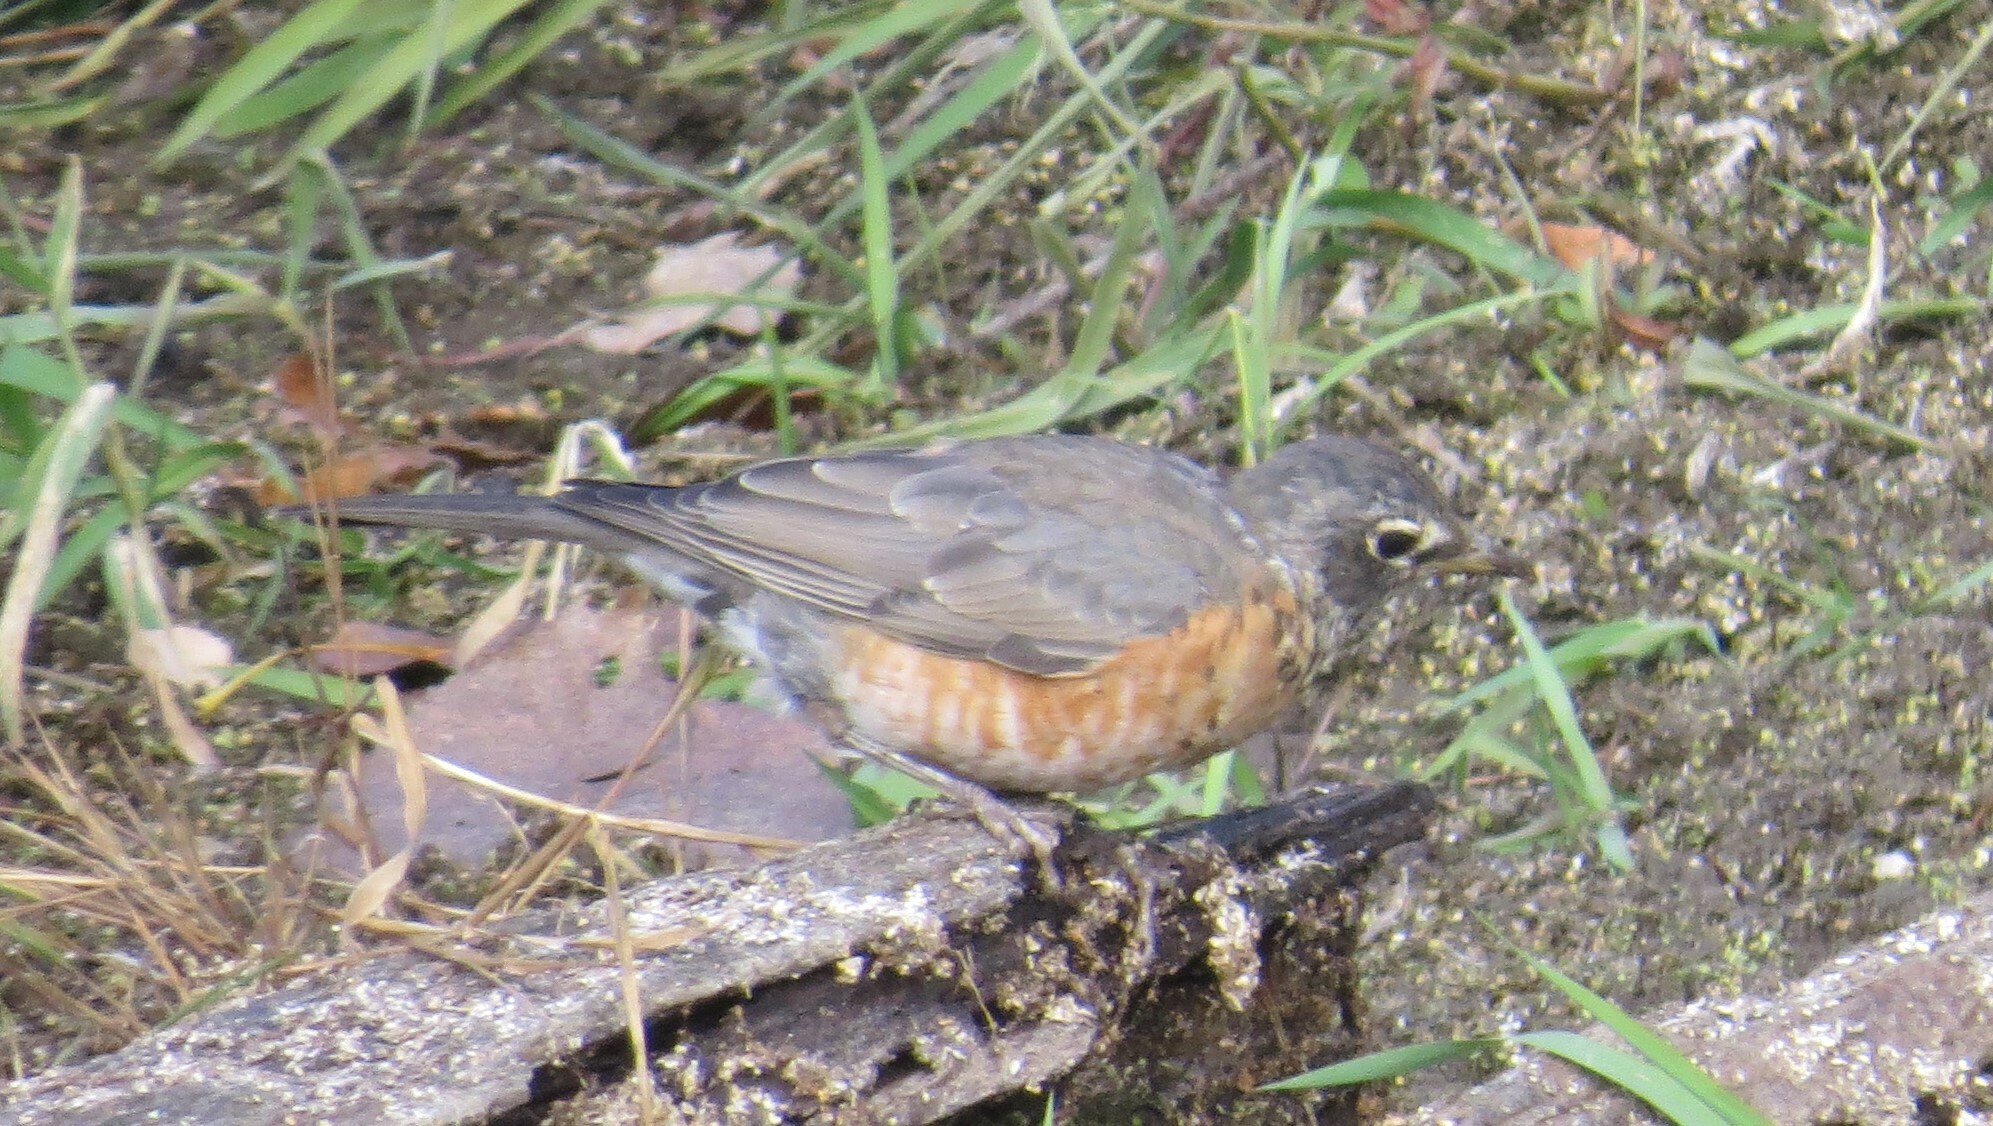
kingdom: Animalia
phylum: Chordata
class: Aves
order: Passeriformes
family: Turdidae
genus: Turdus
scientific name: Turdus migratorius
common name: American robin
